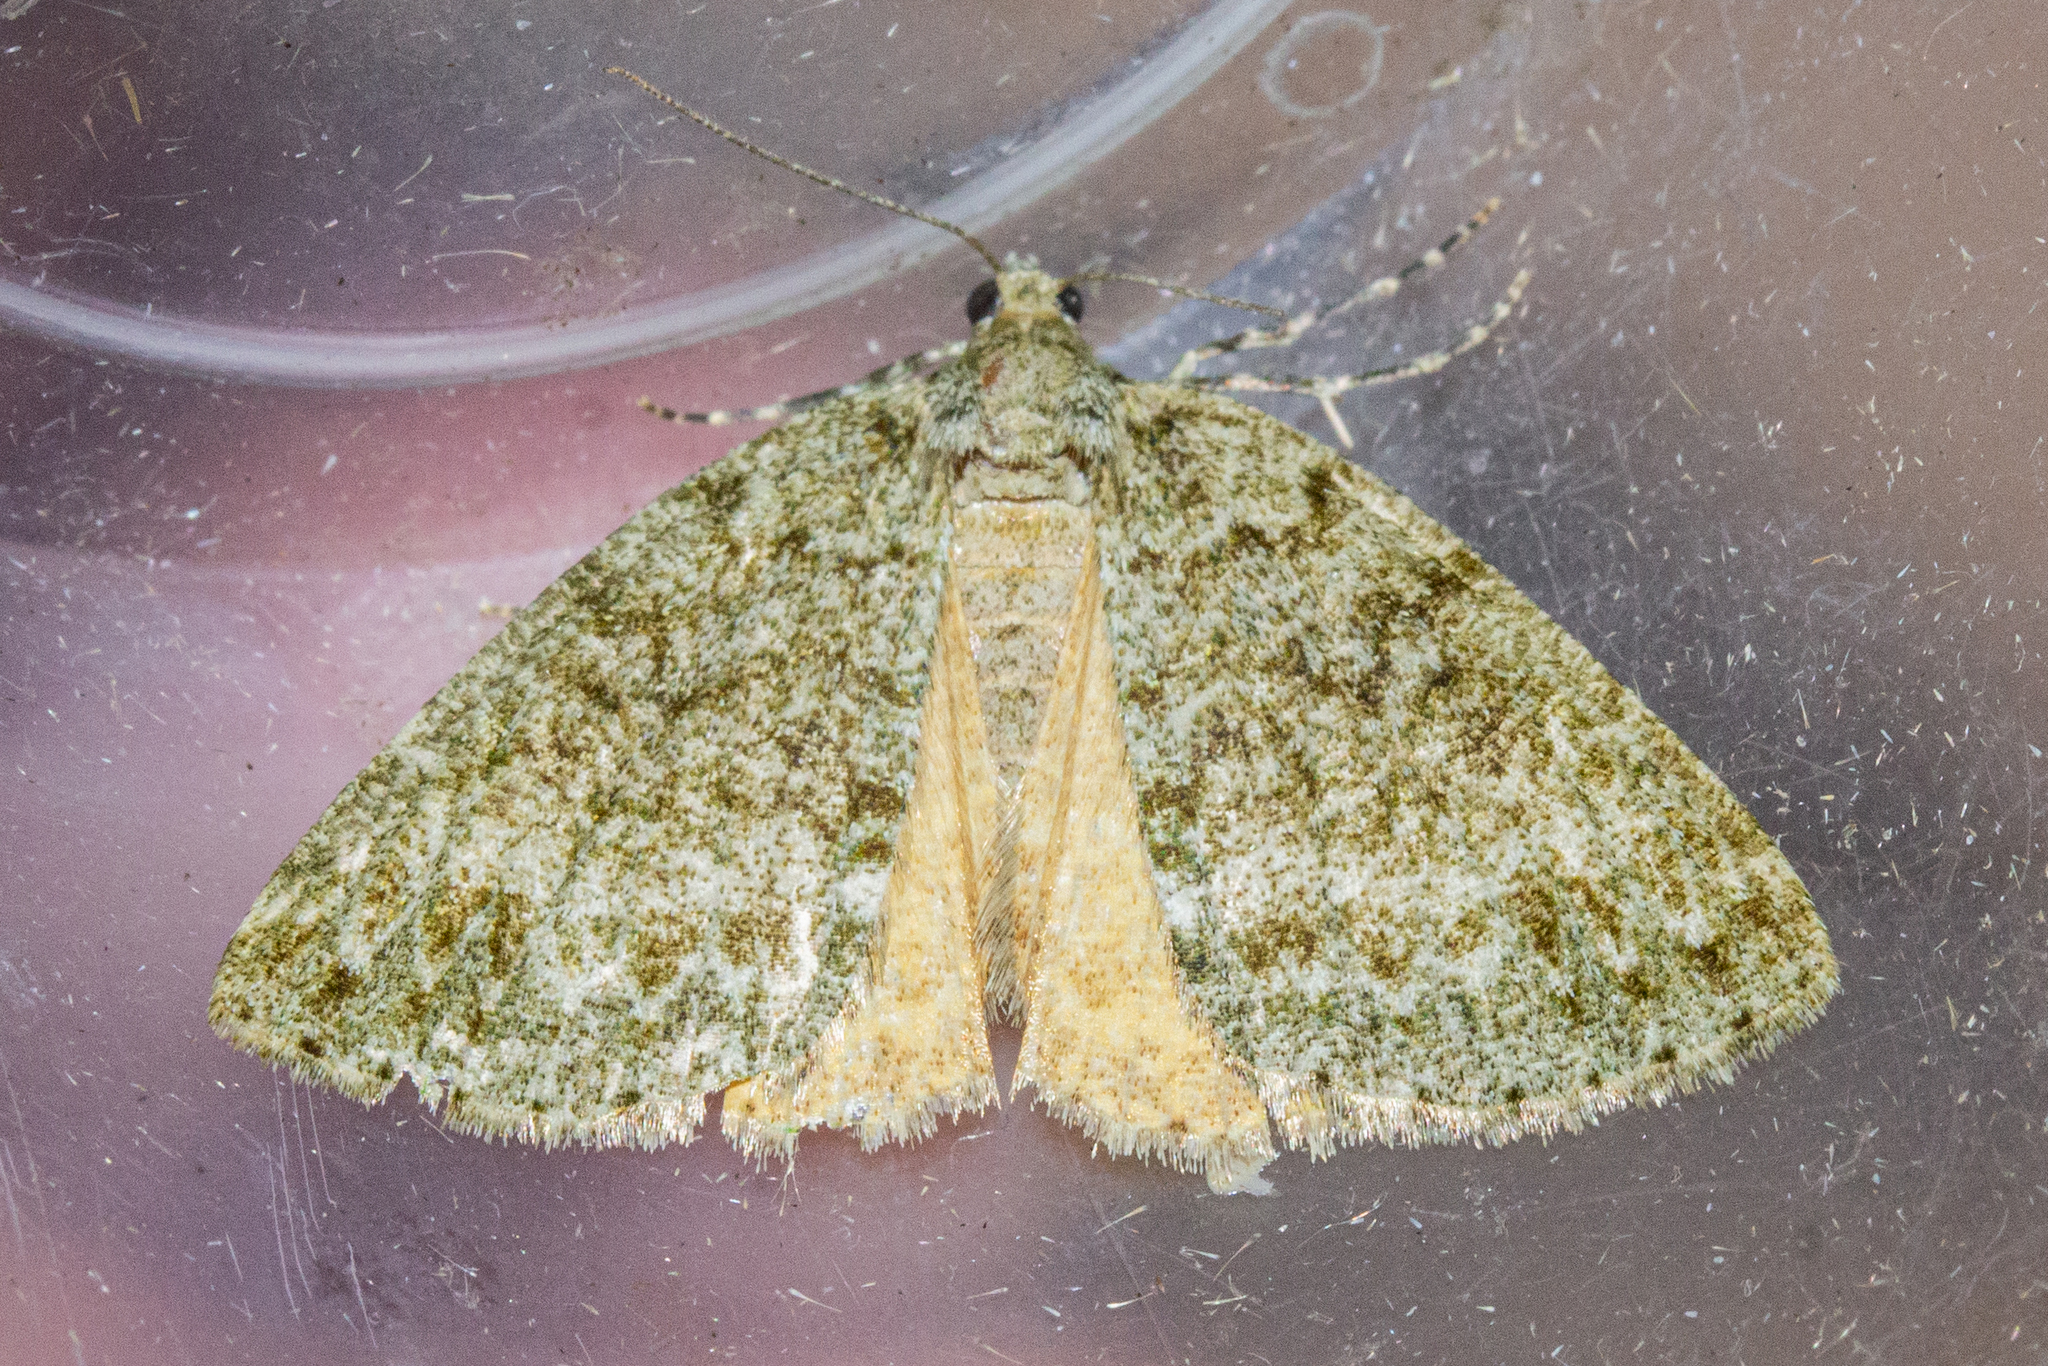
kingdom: Animalia
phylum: Arthropoda
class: Insecta
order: Lepidoptera
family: Geometridae
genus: Pseudocoremia
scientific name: Pseudocoremia indistincta
